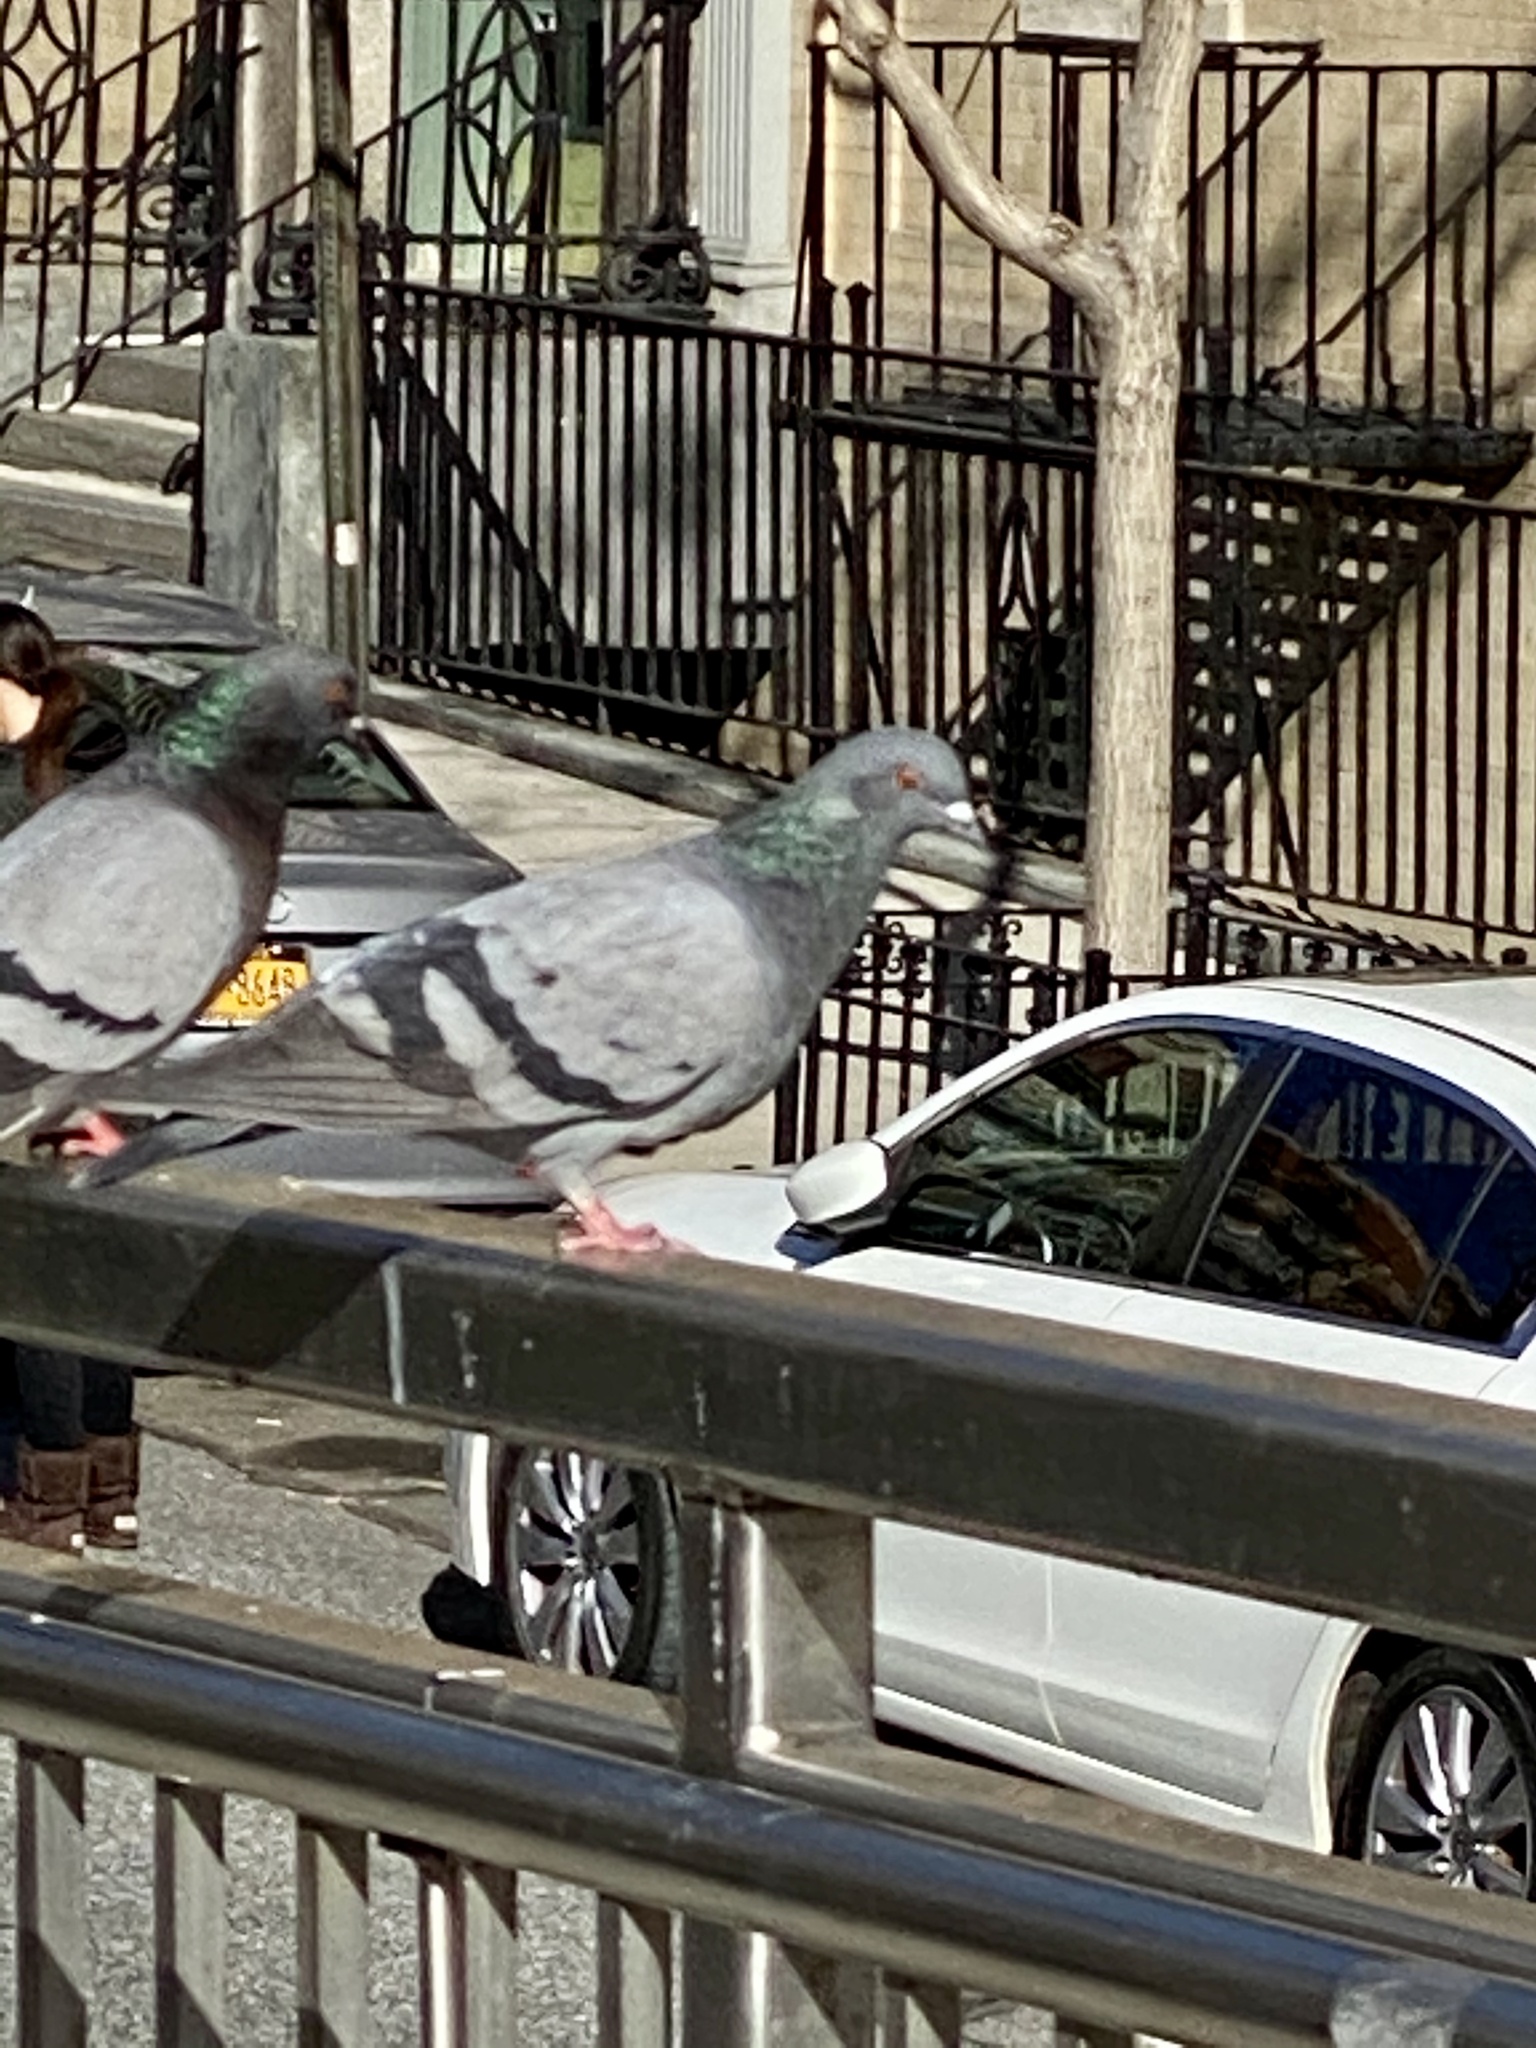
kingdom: Animalia
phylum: Chordata
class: Aves
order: Columbiformes
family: Columbidae
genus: Columba
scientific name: Columba livia
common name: Rock pigeon
